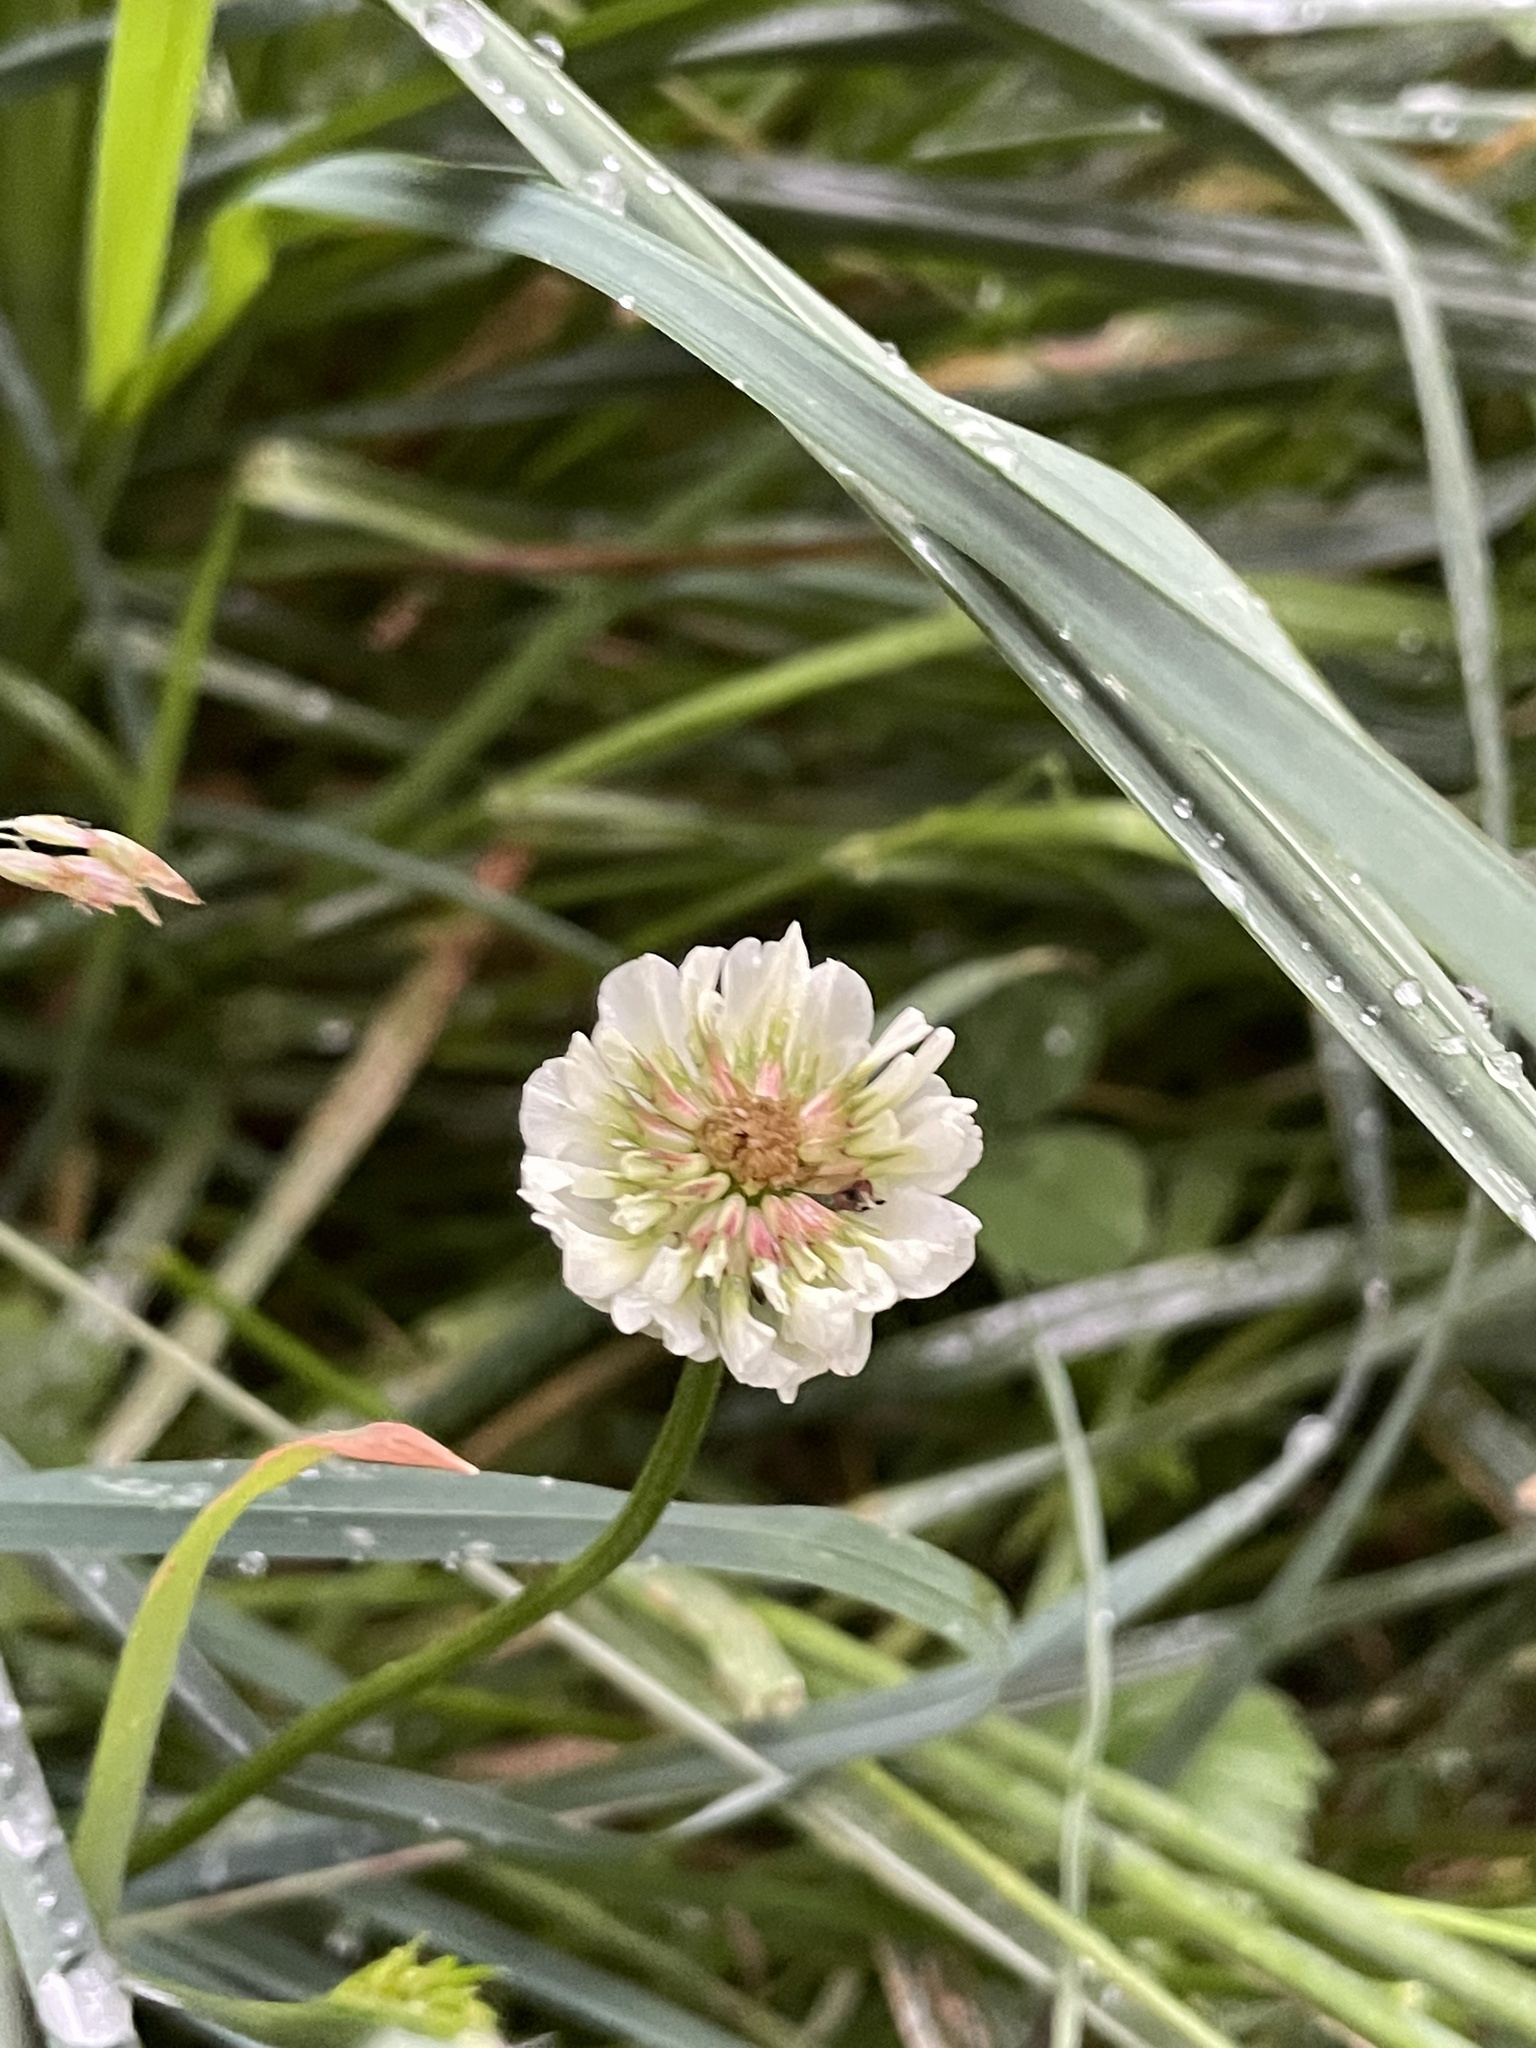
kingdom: Plantae
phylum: Tracheophyta
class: Magnoliopsida
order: Fabales
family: Fabaceae
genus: Trifolium
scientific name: Trifolium repens
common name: White clover
